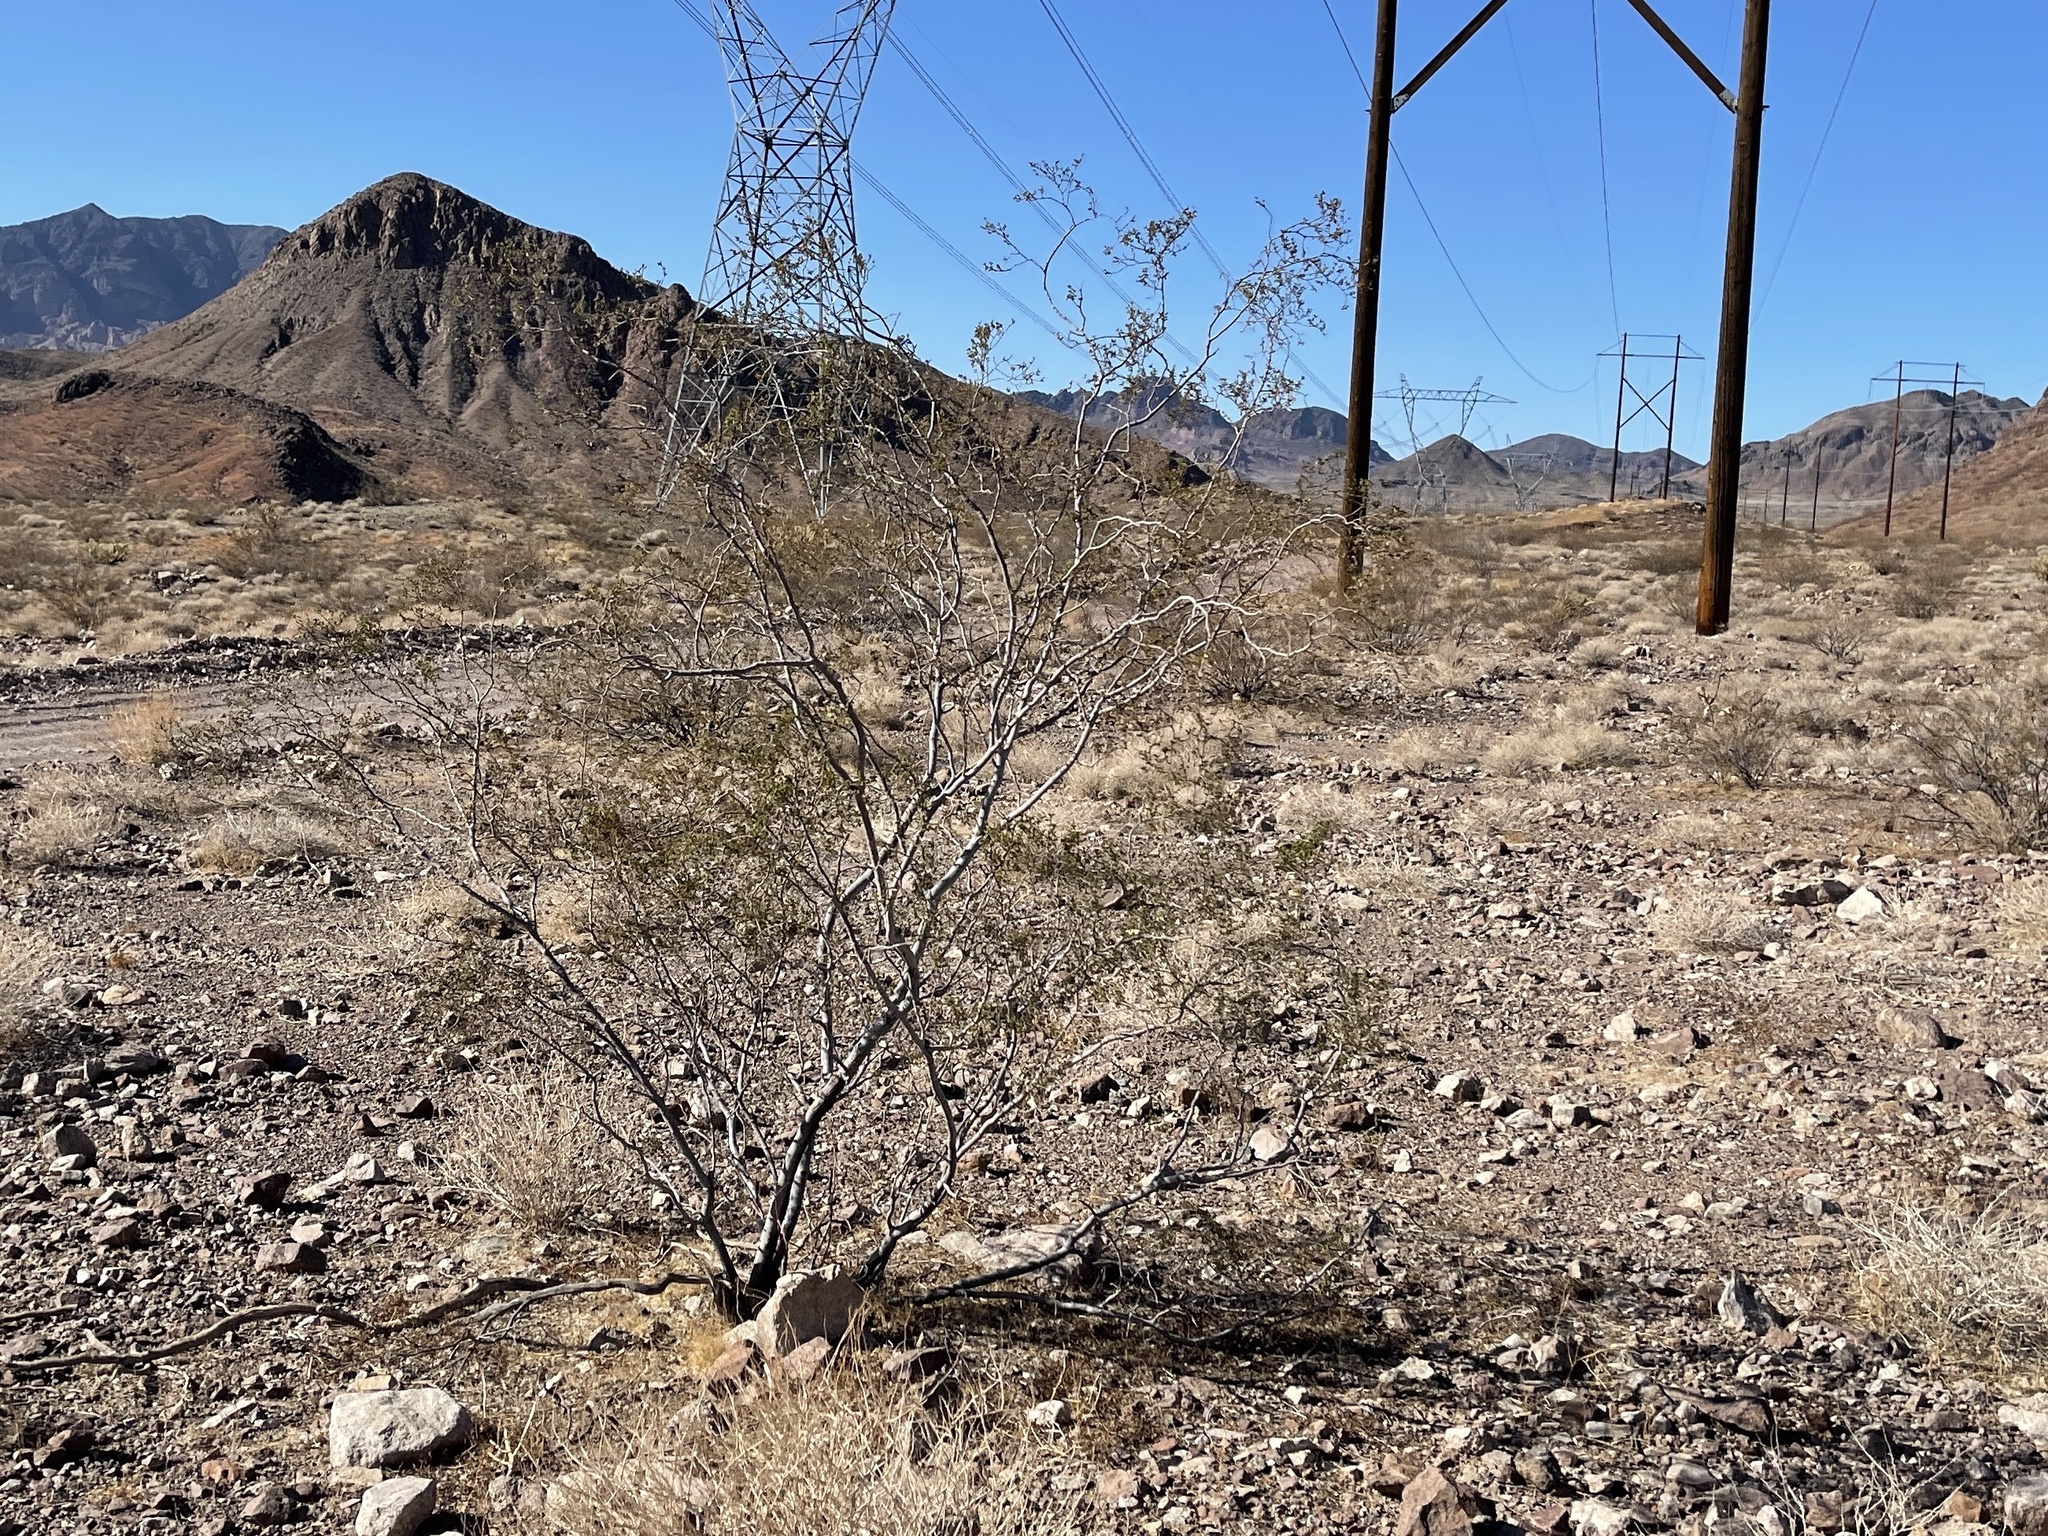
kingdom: Plantae
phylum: Tracheophyta
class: Magnoliopsida
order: Zygophyllales
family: Zygophyllaceae
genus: Larrea
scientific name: Larrea tridentata
